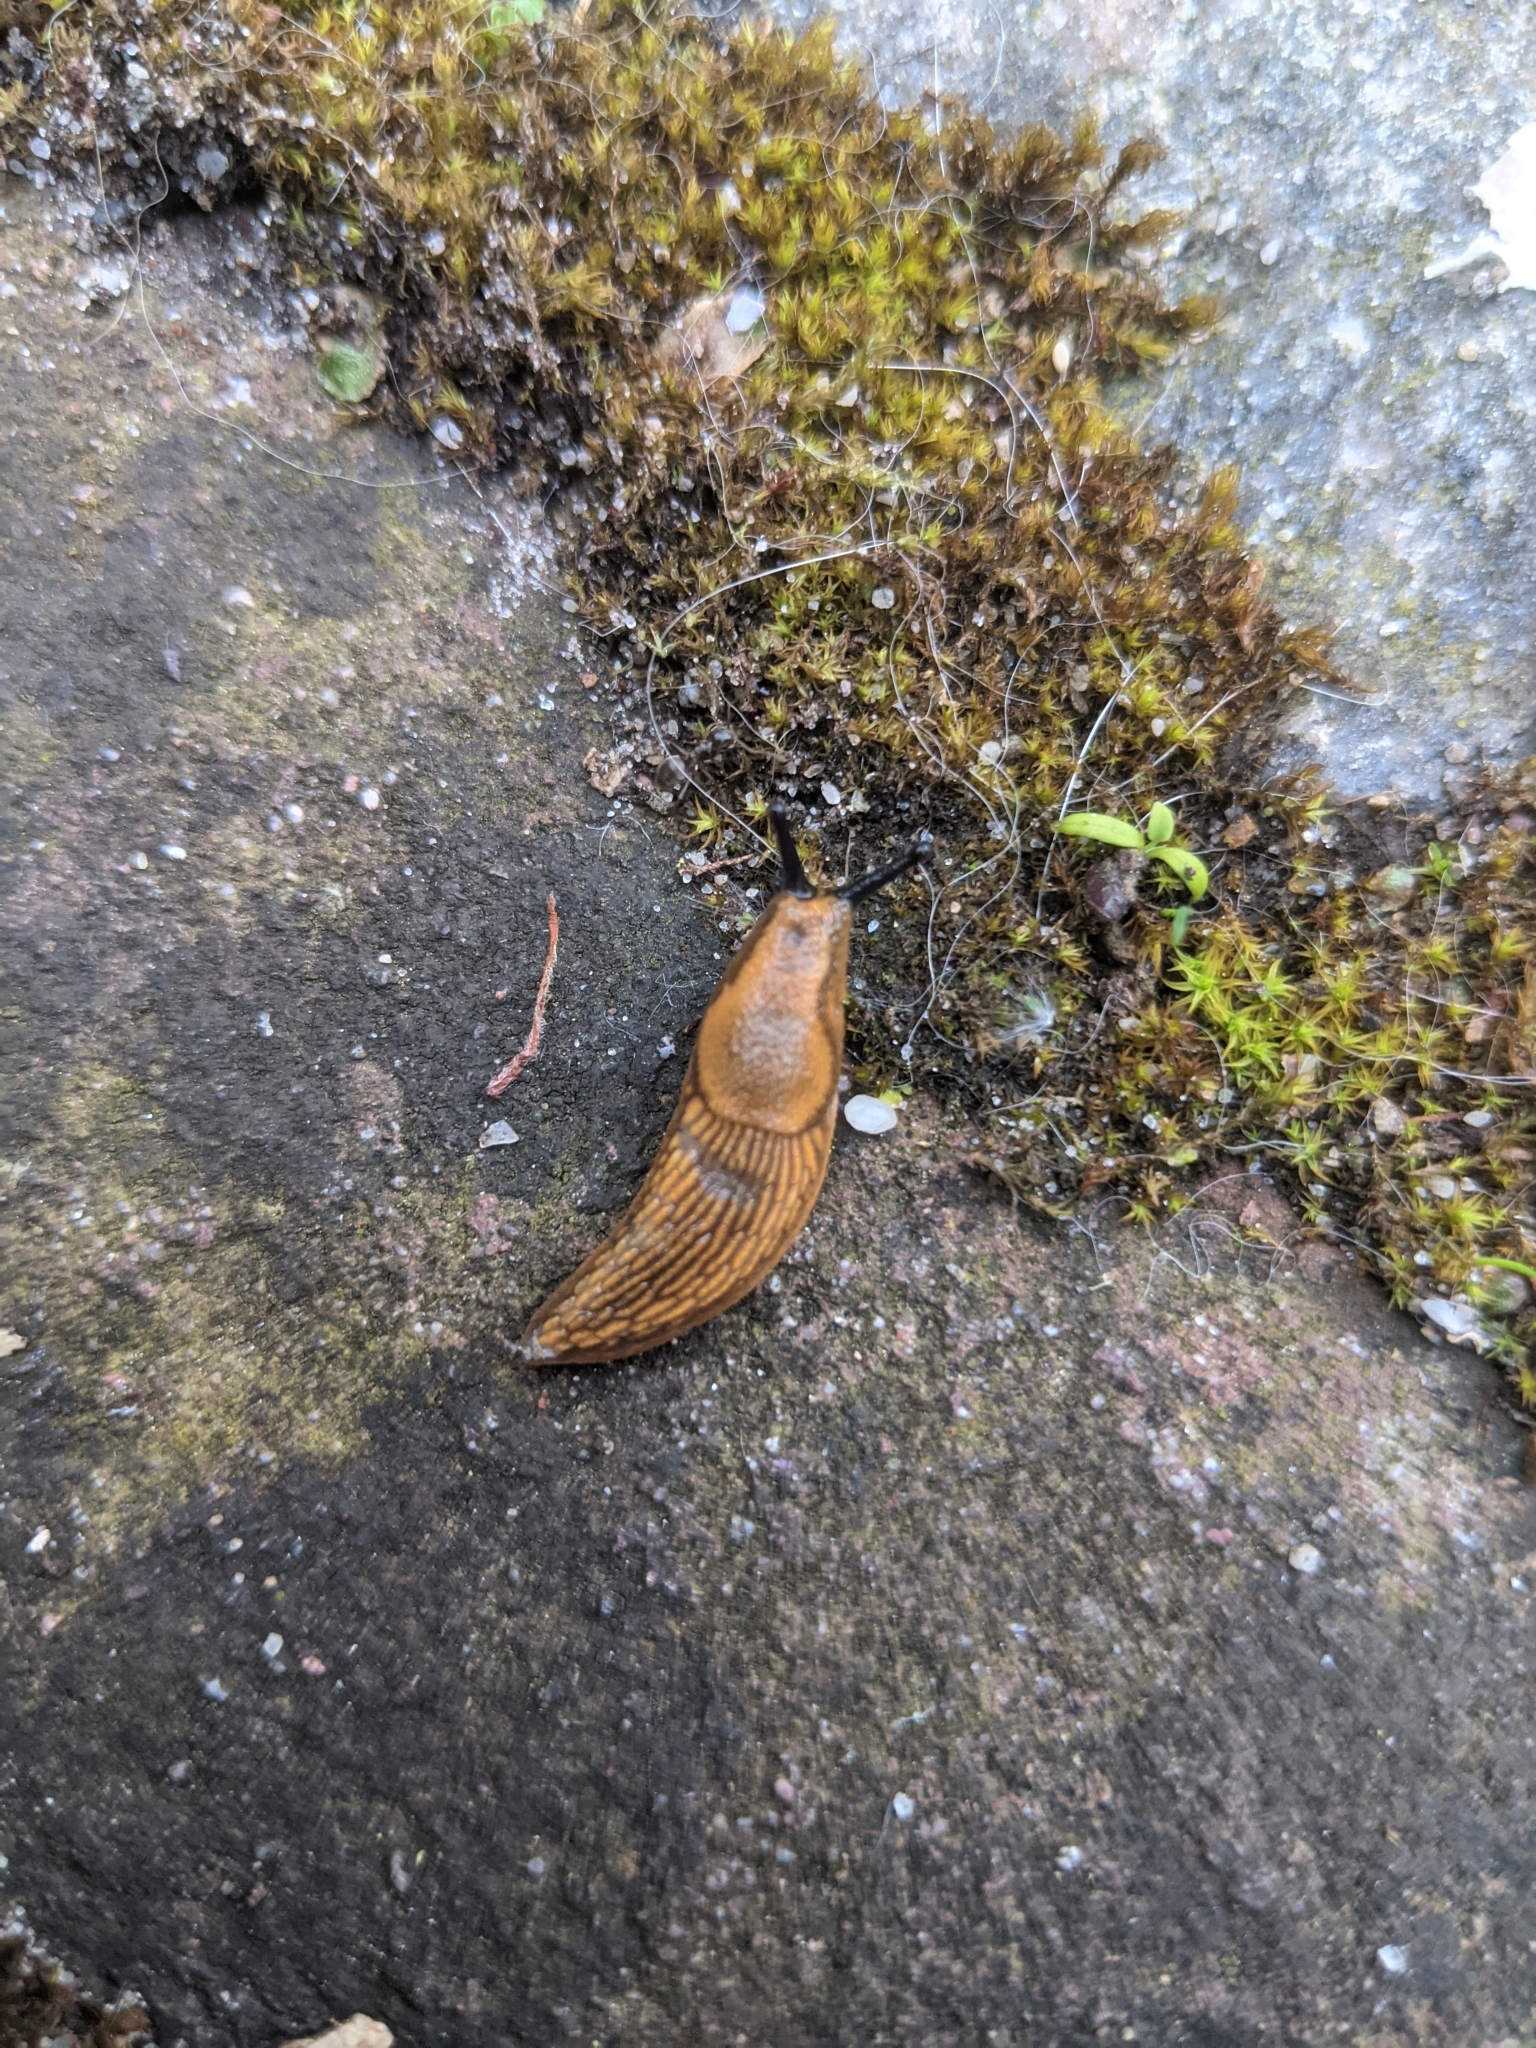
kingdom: Animalia
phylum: Mollusca
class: Gastropoda
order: Stylommatophora
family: Arionidae
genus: Arion
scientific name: Arion vulgaris
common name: Lusitanian slug
